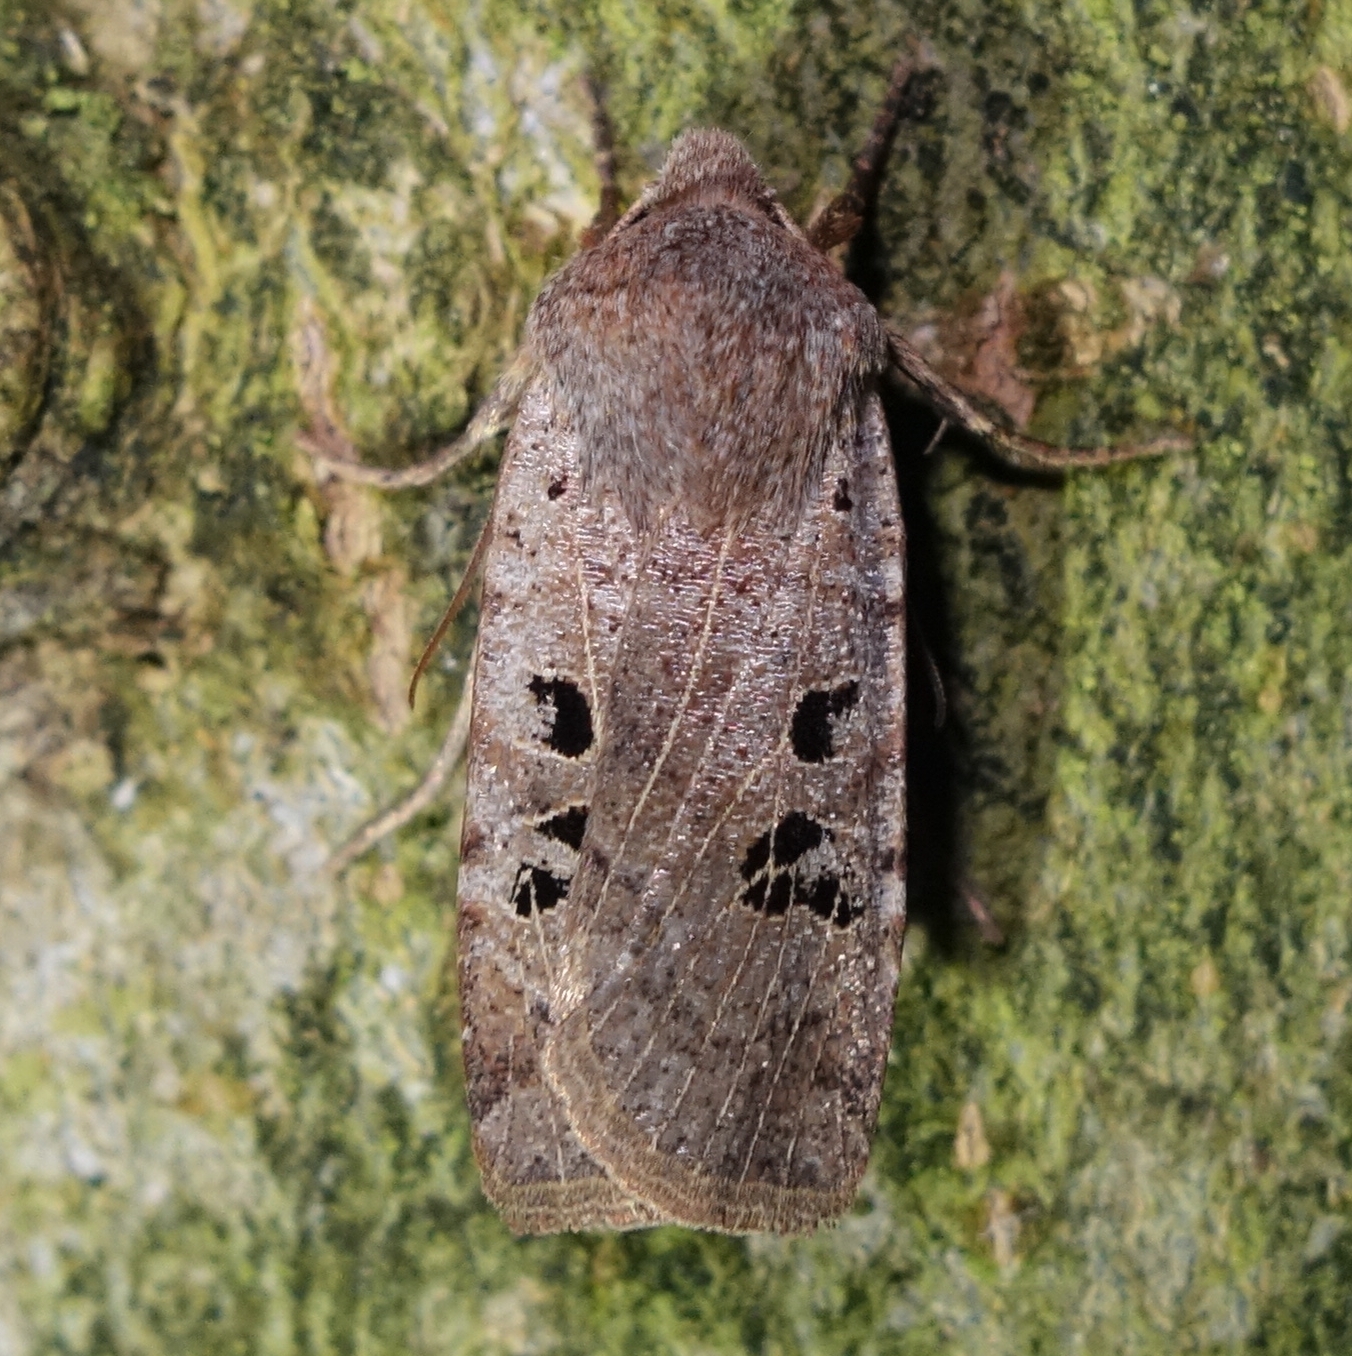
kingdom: Animalia
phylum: Arthropoda
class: Insecta
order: Lepidoptera
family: Noctuidae
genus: Conistra
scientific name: Conistra rubiginosa
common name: Black-spotted chestnut
